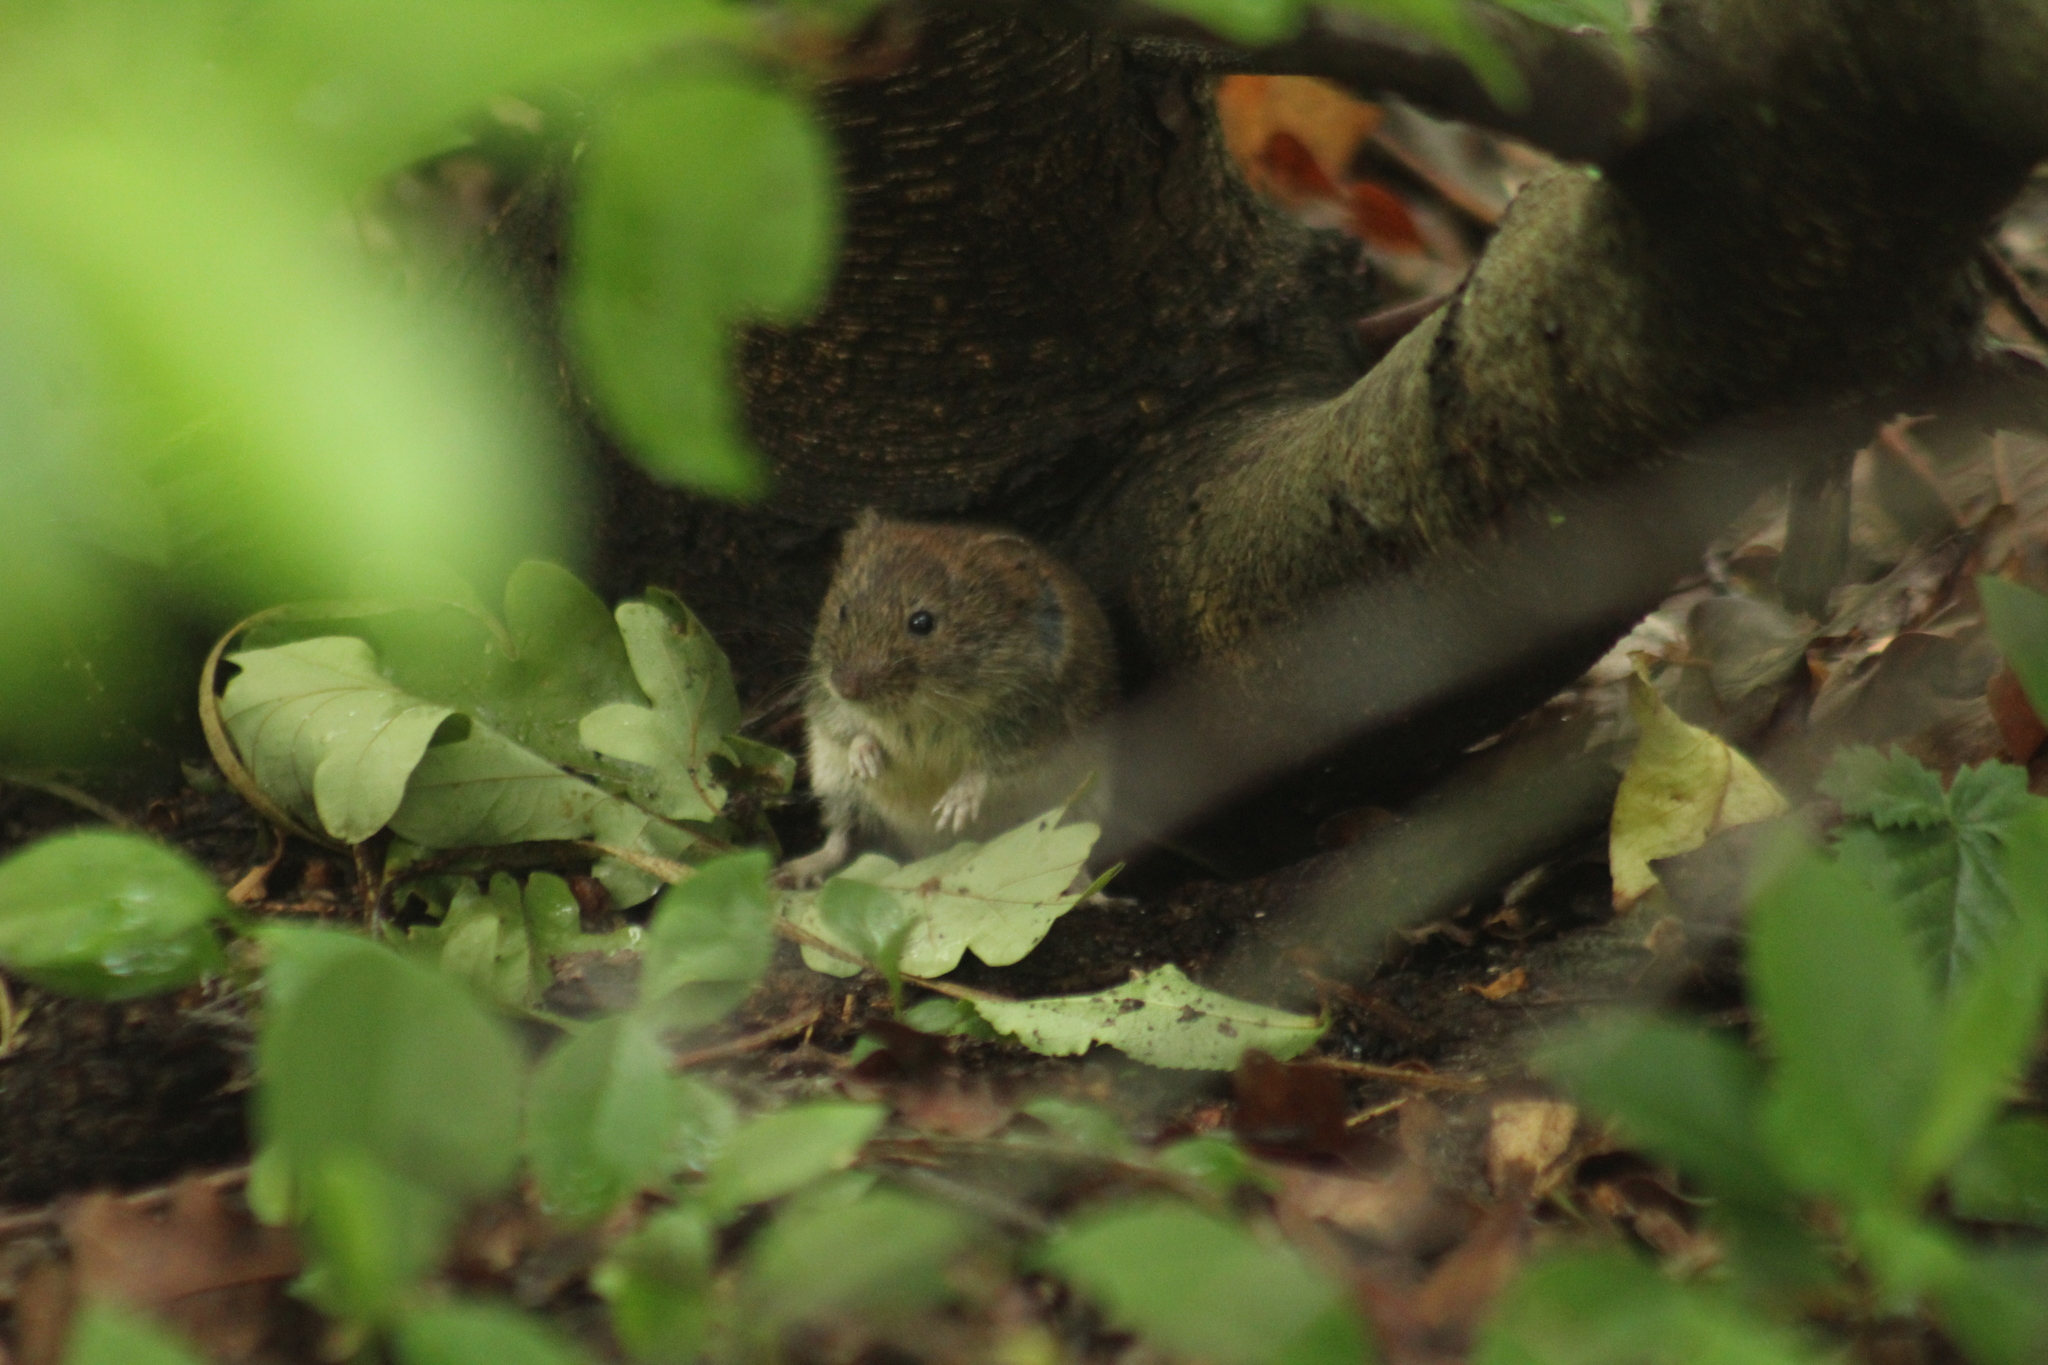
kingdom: Animalia
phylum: Chordata
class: Mammalia
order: Rodentia
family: Cricetidae
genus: Myodes
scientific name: Myodes glareolus
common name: Bank vole
